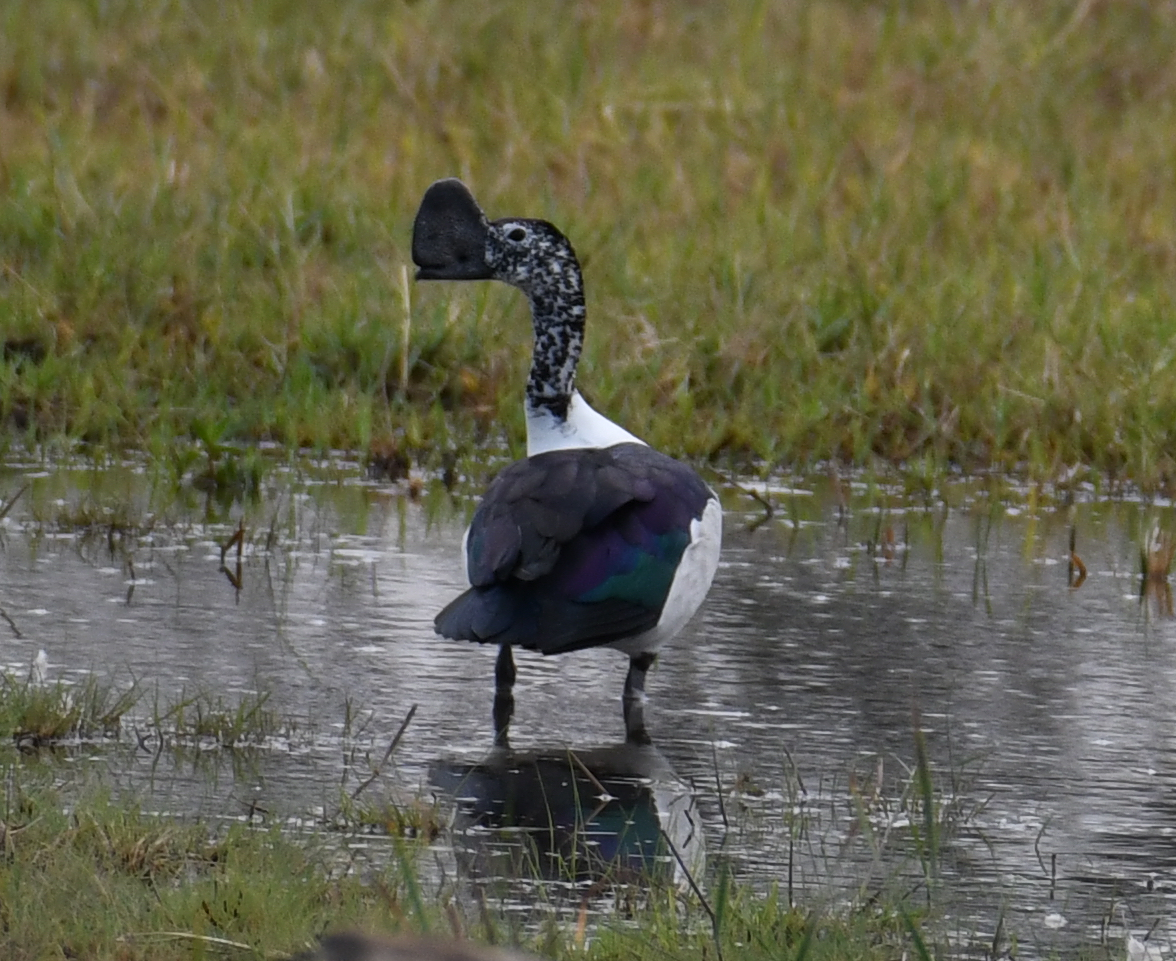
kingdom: Animalia
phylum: Chordata
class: Aves
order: Anseriformes
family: Anatidae
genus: Sarkidiornis
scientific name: Sarkidiornis melanotos
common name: Comb duck
